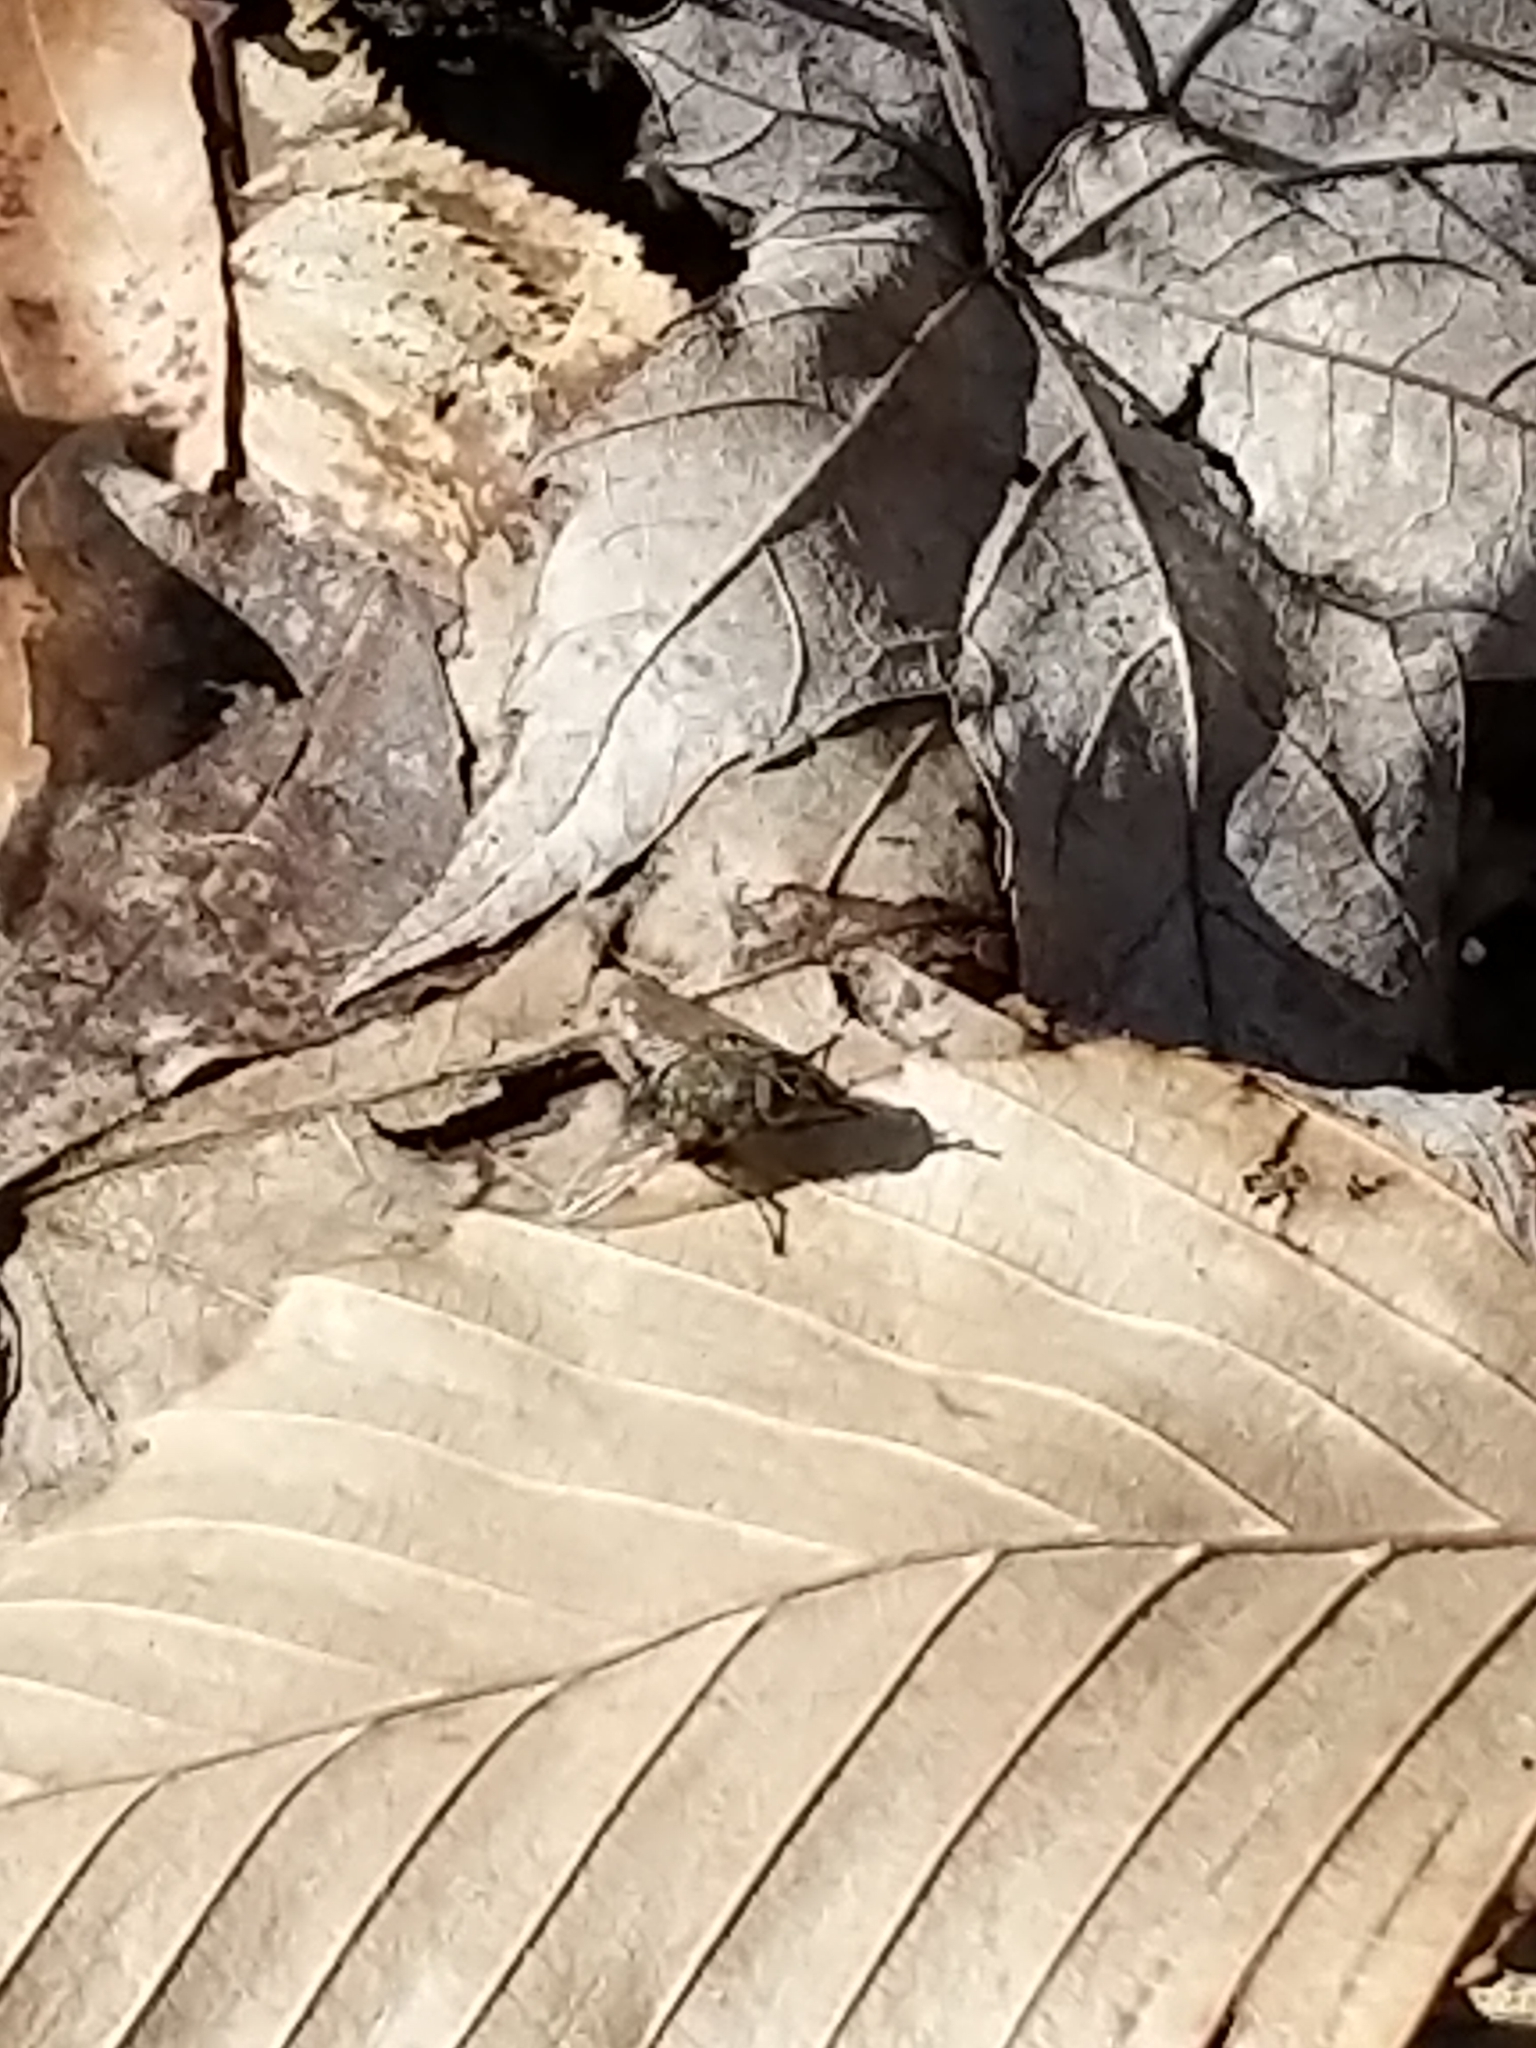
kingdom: Animalia
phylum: Arthropoda
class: Insecta
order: Diptera
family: Polleniidae
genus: Pollenia
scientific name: Pollenia
